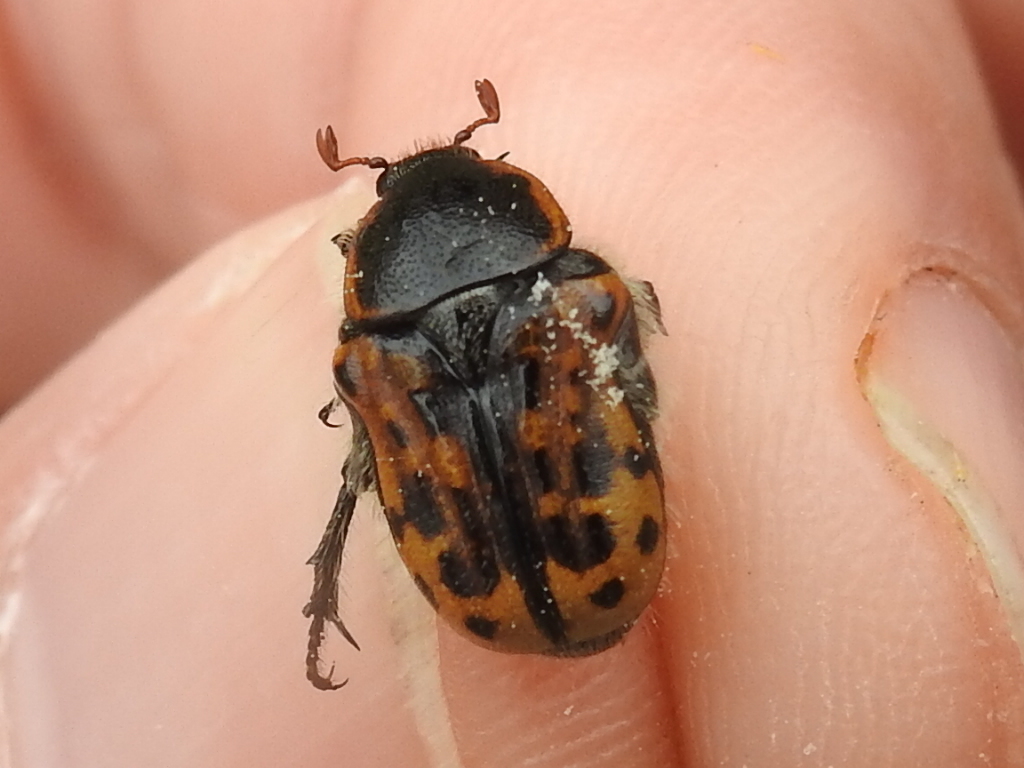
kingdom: Animalia
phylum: Arthropoda
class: Insecta
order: Coleoptera
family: Scarabaeidae
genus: Euphoria
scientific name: Euphoria kernii
